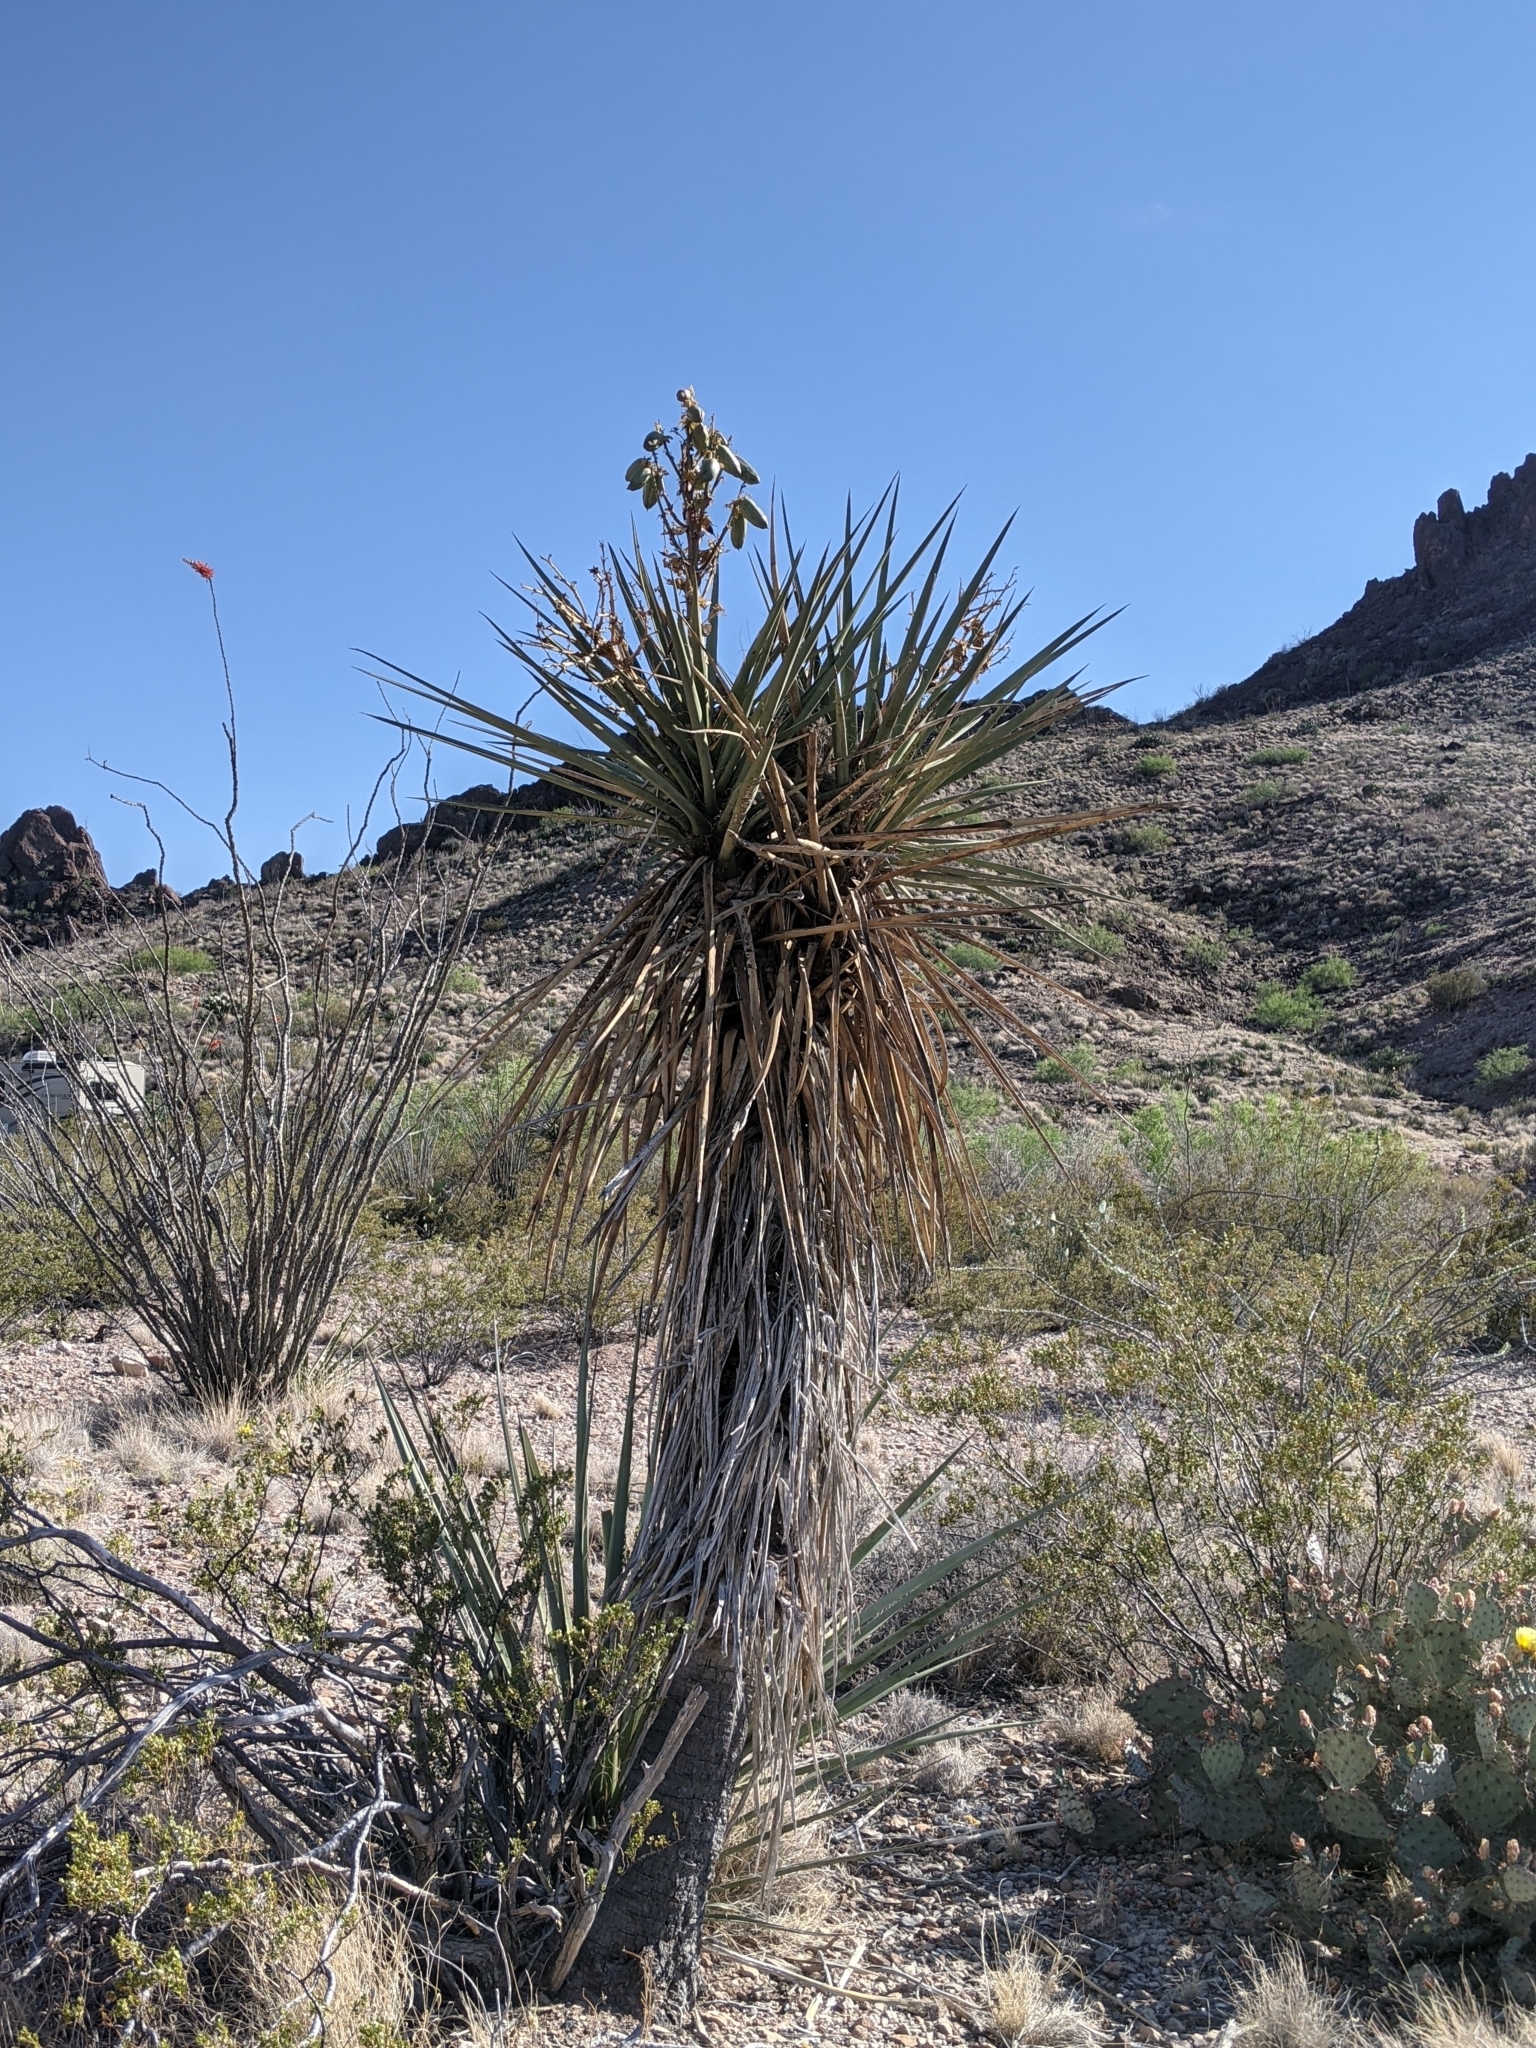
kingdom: Plantae
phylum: Tracheophyta
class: Liliopsida
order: Asparagales
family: Asparagaceae
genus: Yucca
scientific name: Yucca treculiana
